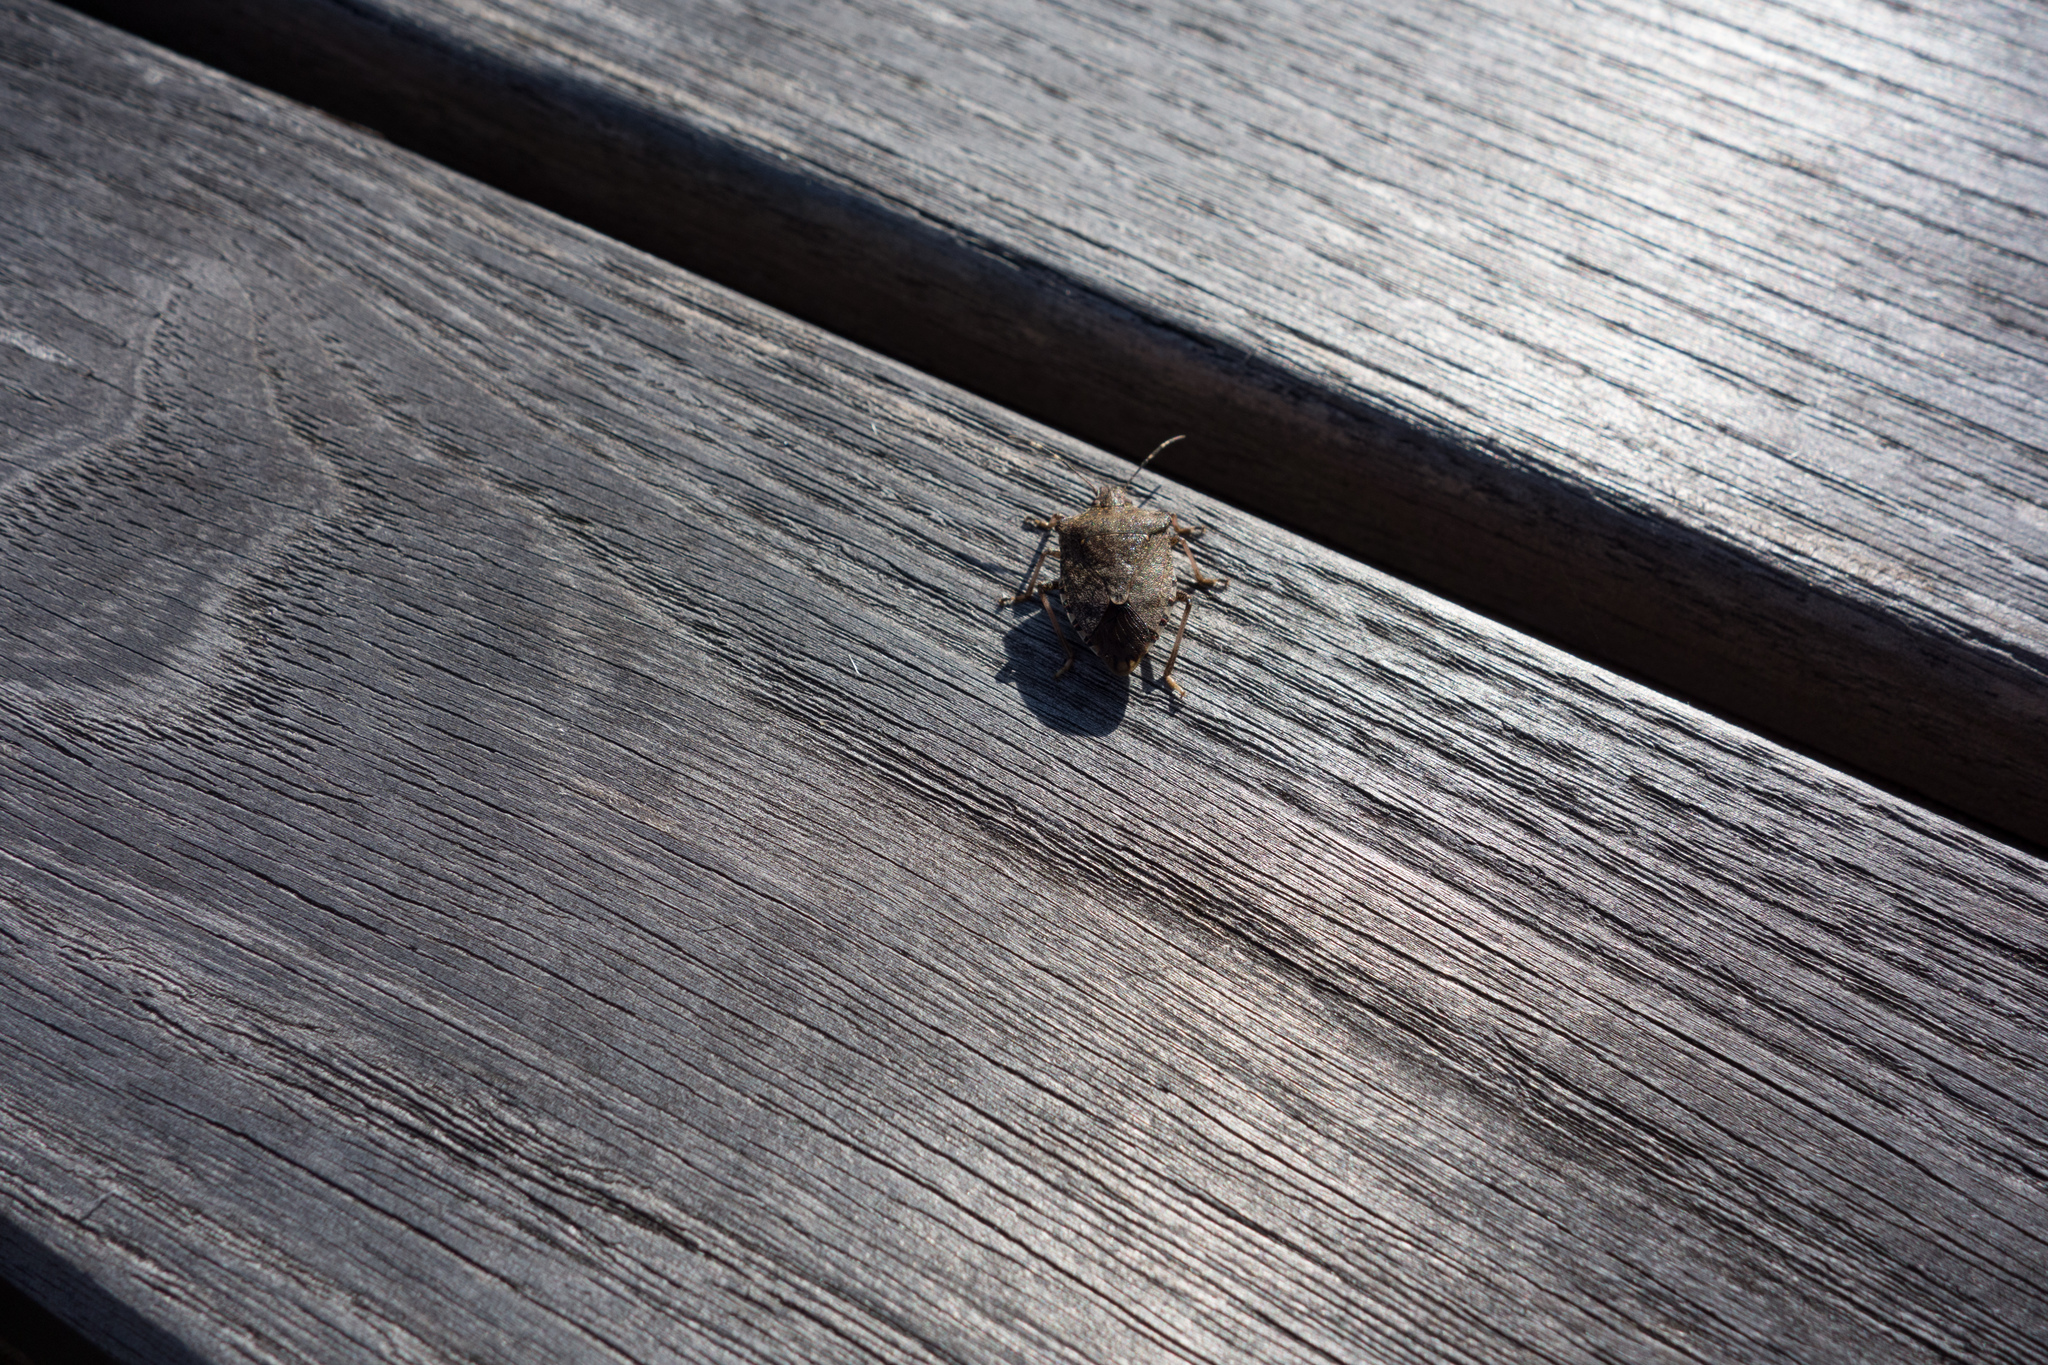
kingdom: Animalia
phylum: Arthropoda
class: Insecta
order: Hemiptera
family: Pentatomidae
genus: Halyomorpha
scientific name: Halyomorpha halys
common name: Brown marmorated stink bug
